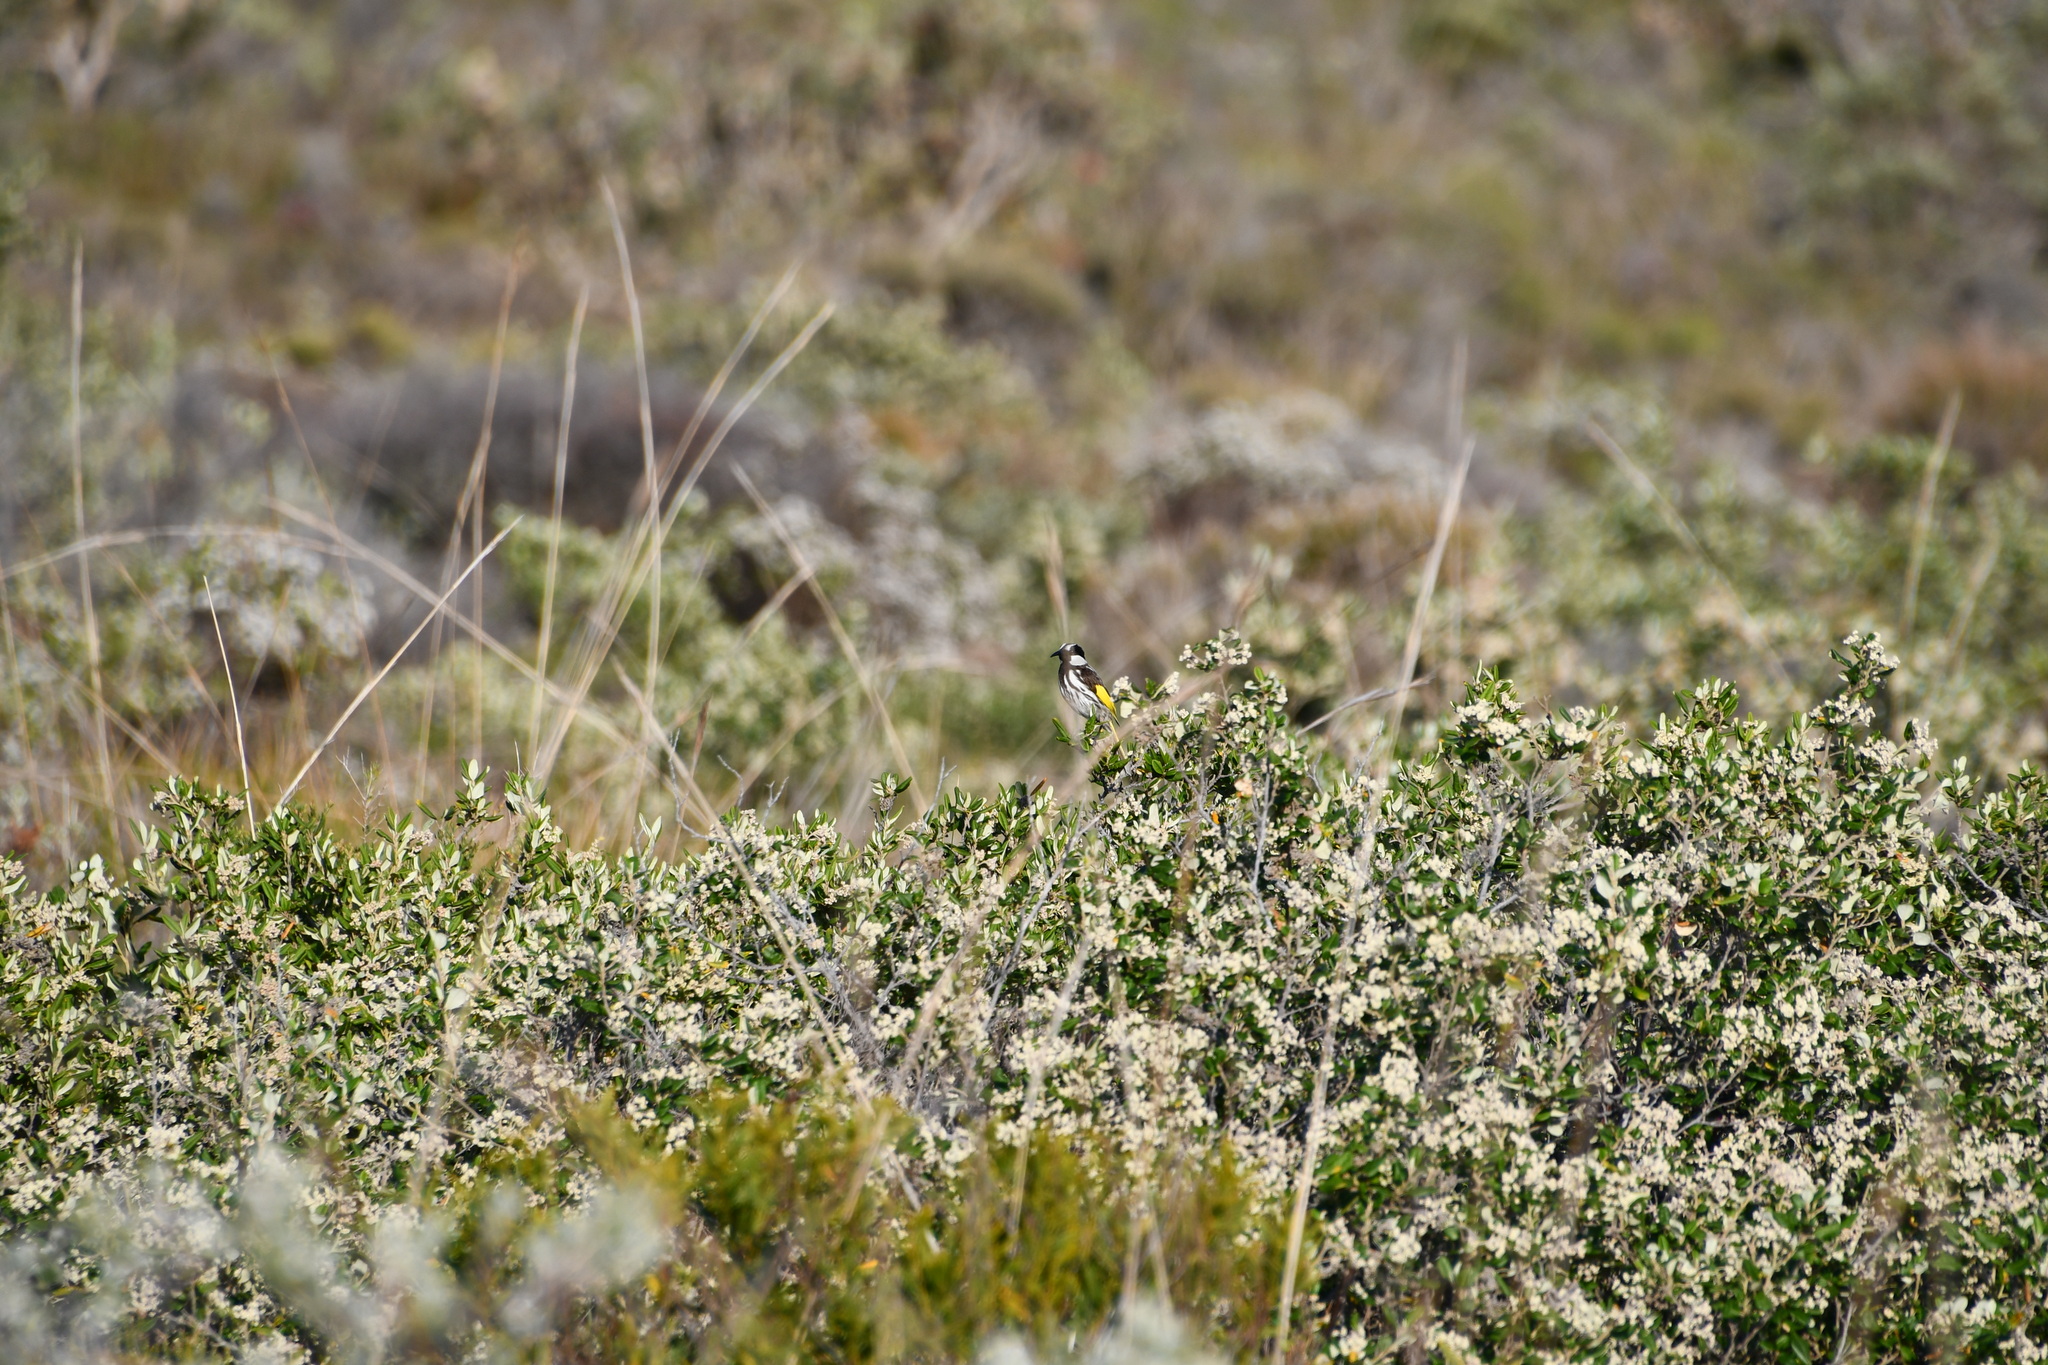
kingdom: Animalia
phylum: Chordata
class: Aves
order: Passeriformes
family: Meliphagidae
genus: Phylidonyris
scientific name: Phylidonyris niger
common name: White-cheeked honeyeater
